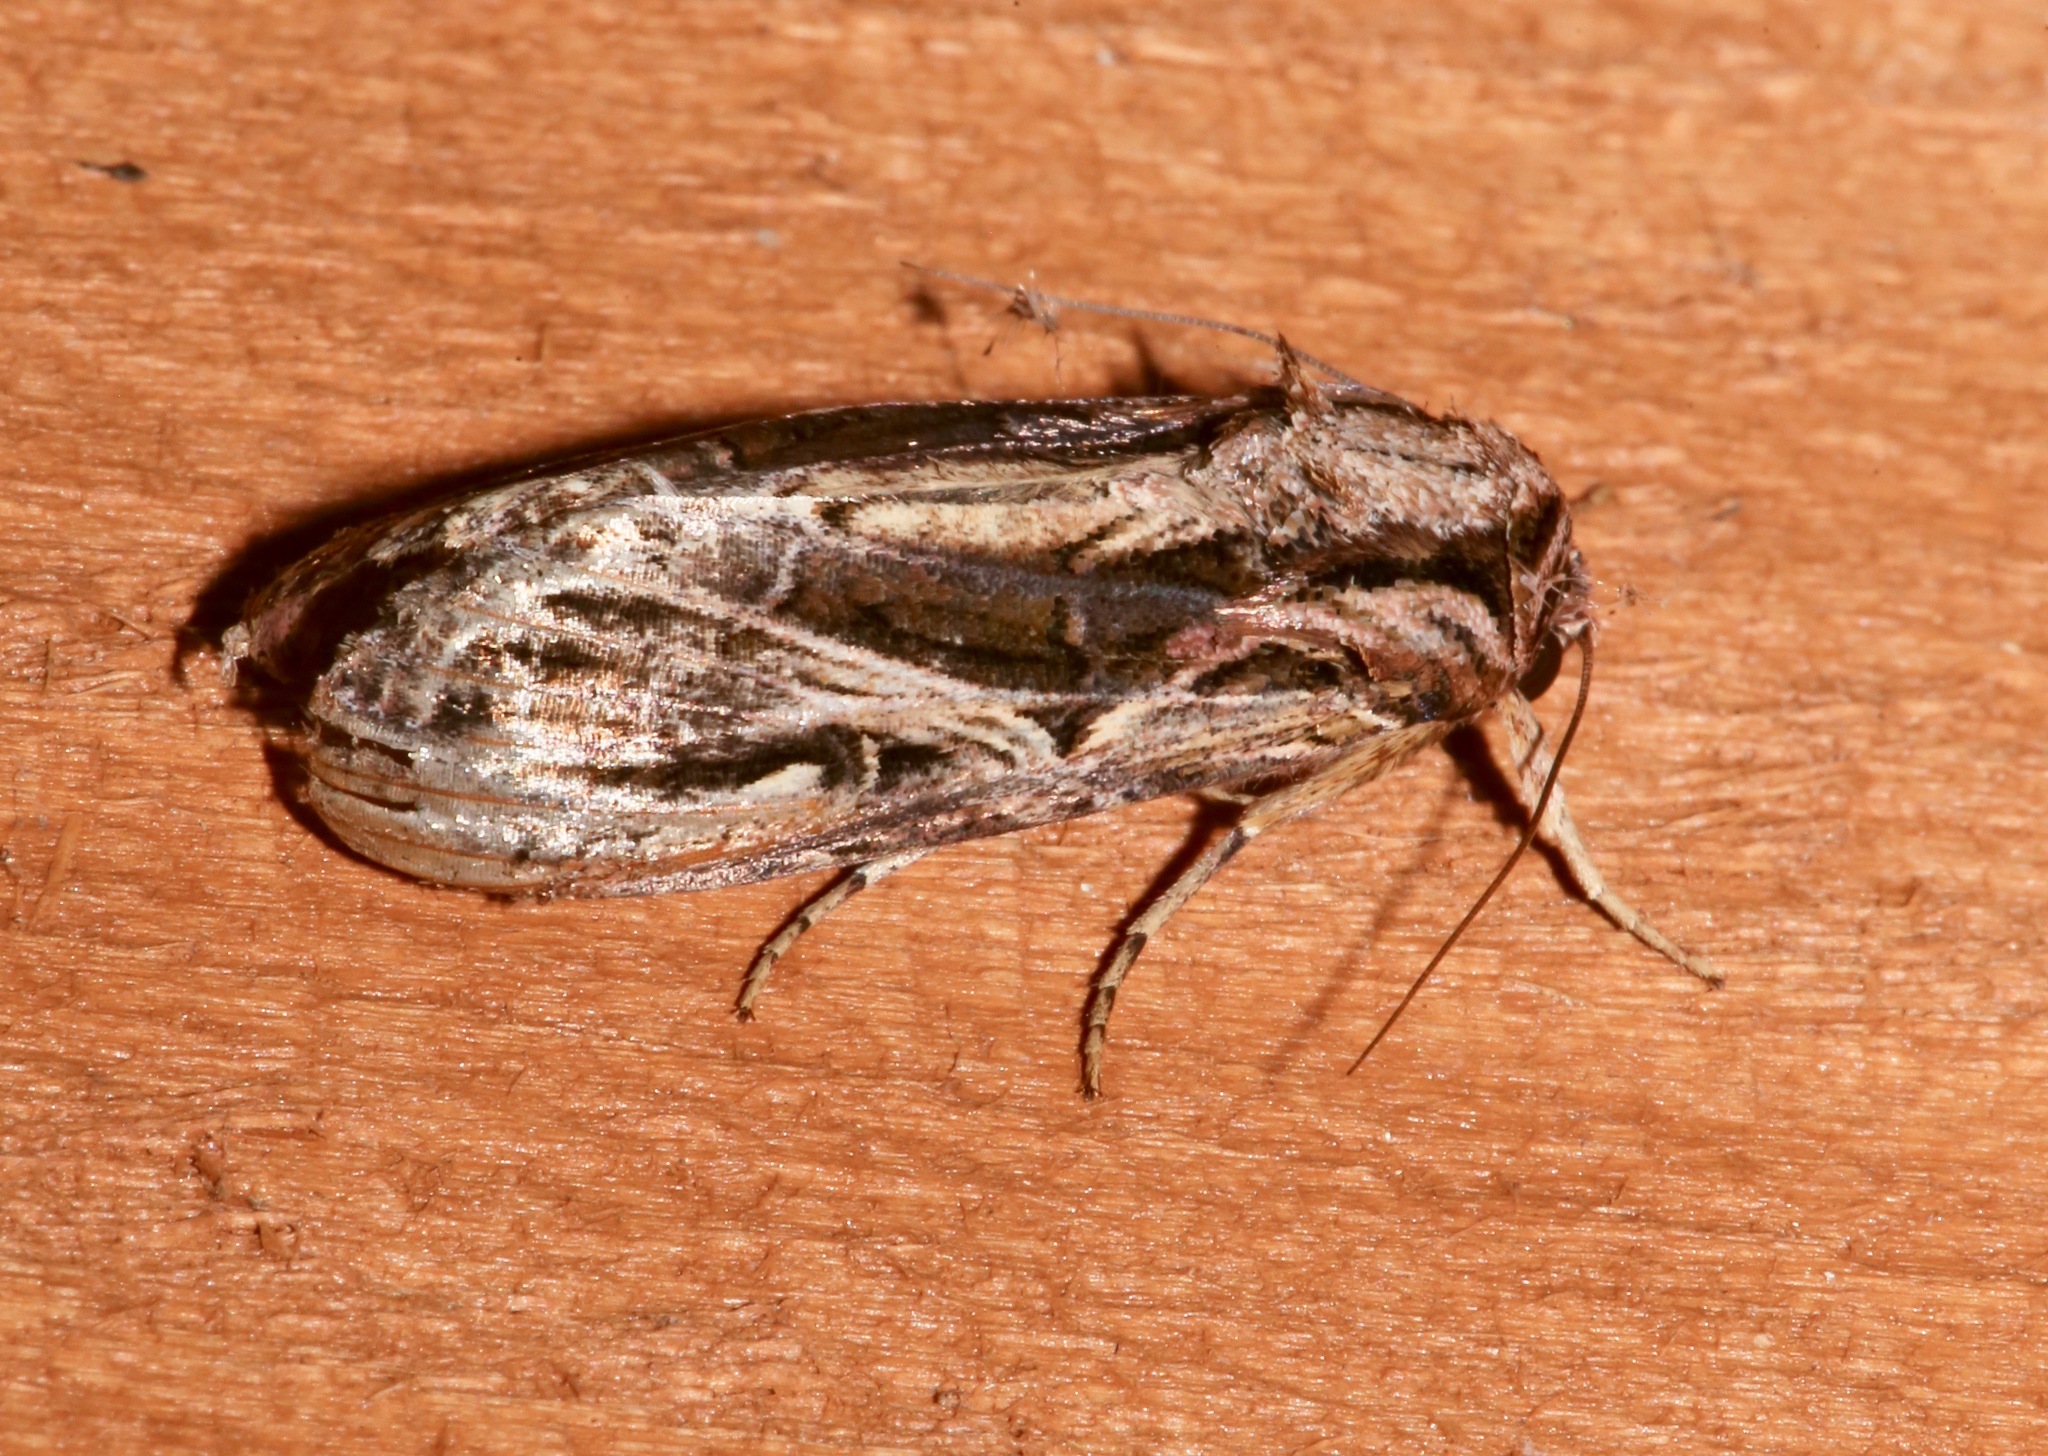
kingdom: Animalia
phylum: Arthropoda
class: Insecta
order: Lepidoptera
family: Noctuidae
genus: Spodoptera
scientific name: Spodoptera dolichos
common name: Sweetpotato armyworm
